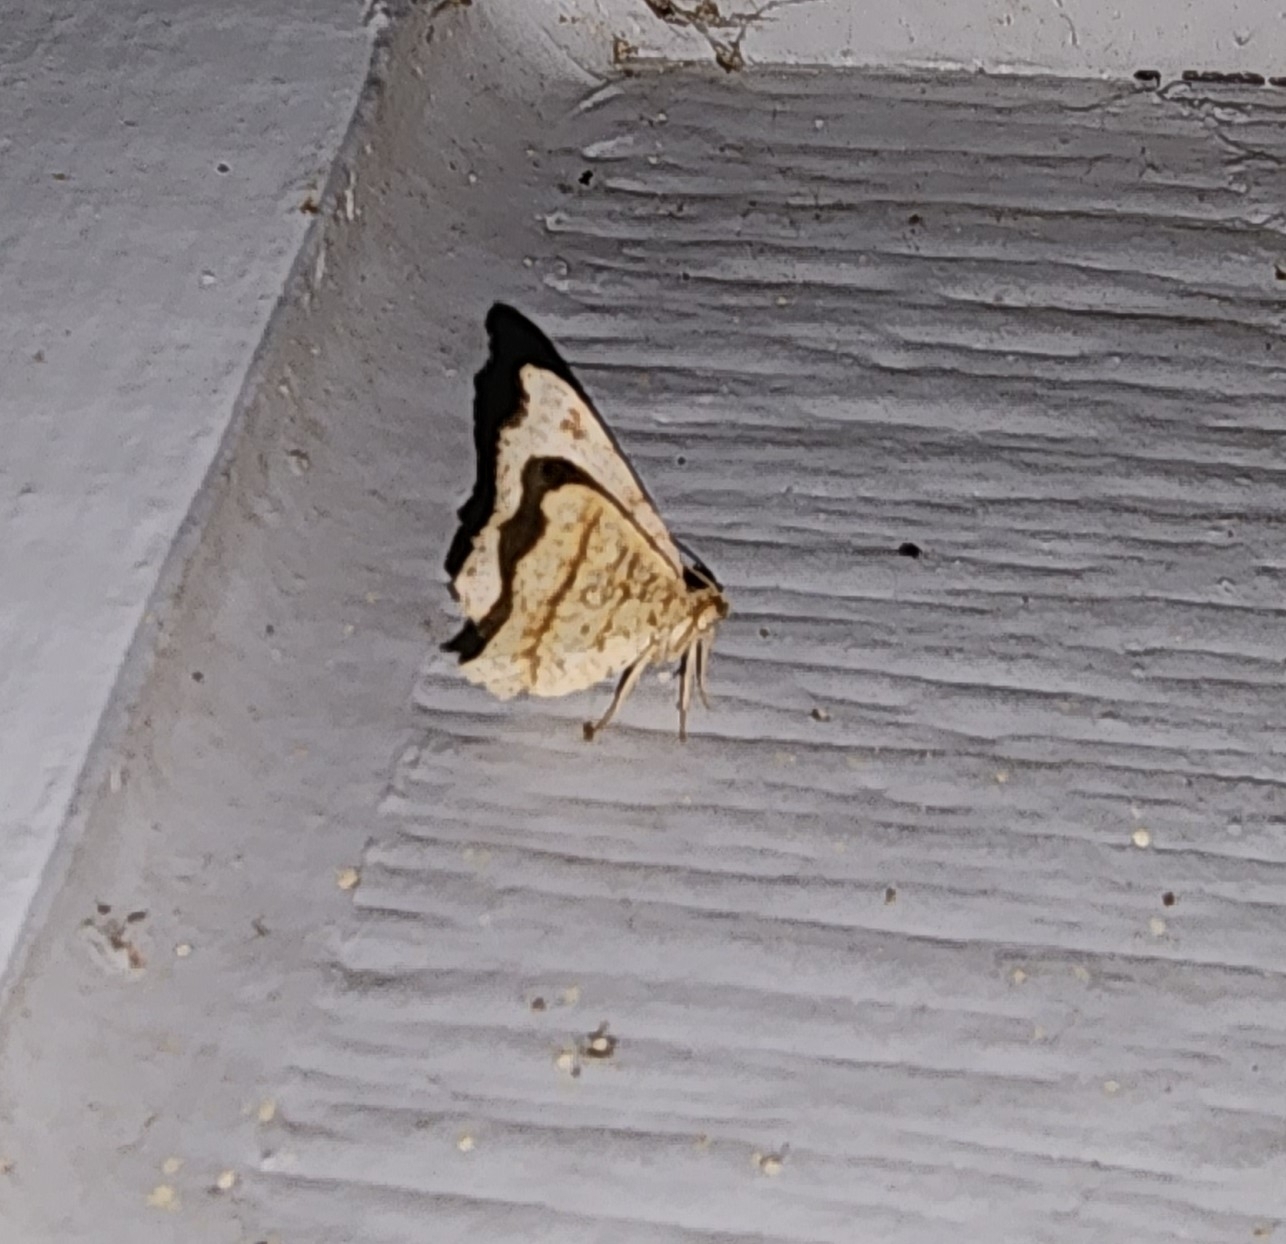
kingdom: Animalia
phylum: Arthropoda
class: Insecta
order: Lepidoptera
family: Geometridae
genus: Macaria
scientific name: Macaria aemulataria
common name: Common angle
